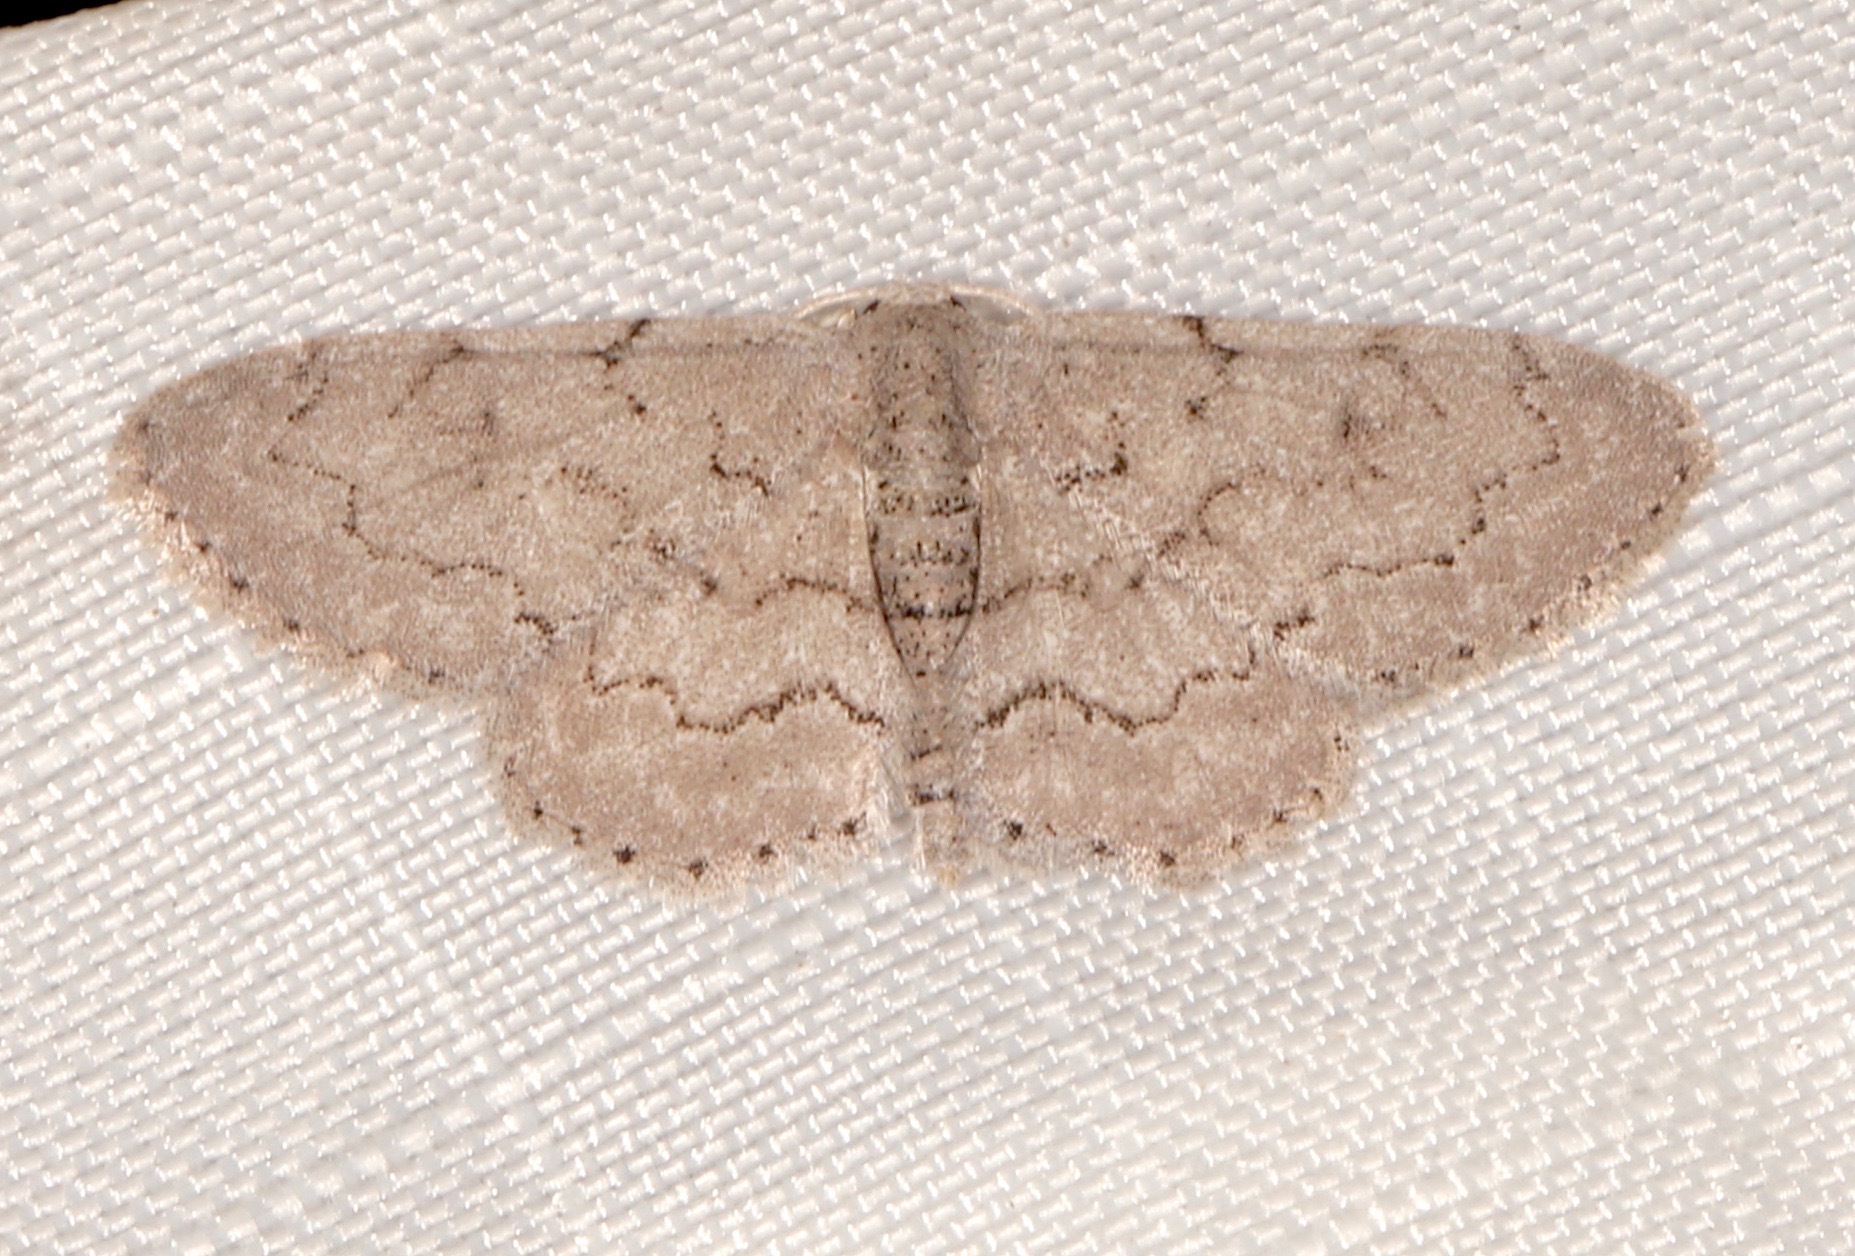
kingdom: Animalia
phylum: Arthropoda
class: Insecta
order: Lepidoptera
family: Geometridae
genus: Idaea
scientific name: Idaea violacearia
